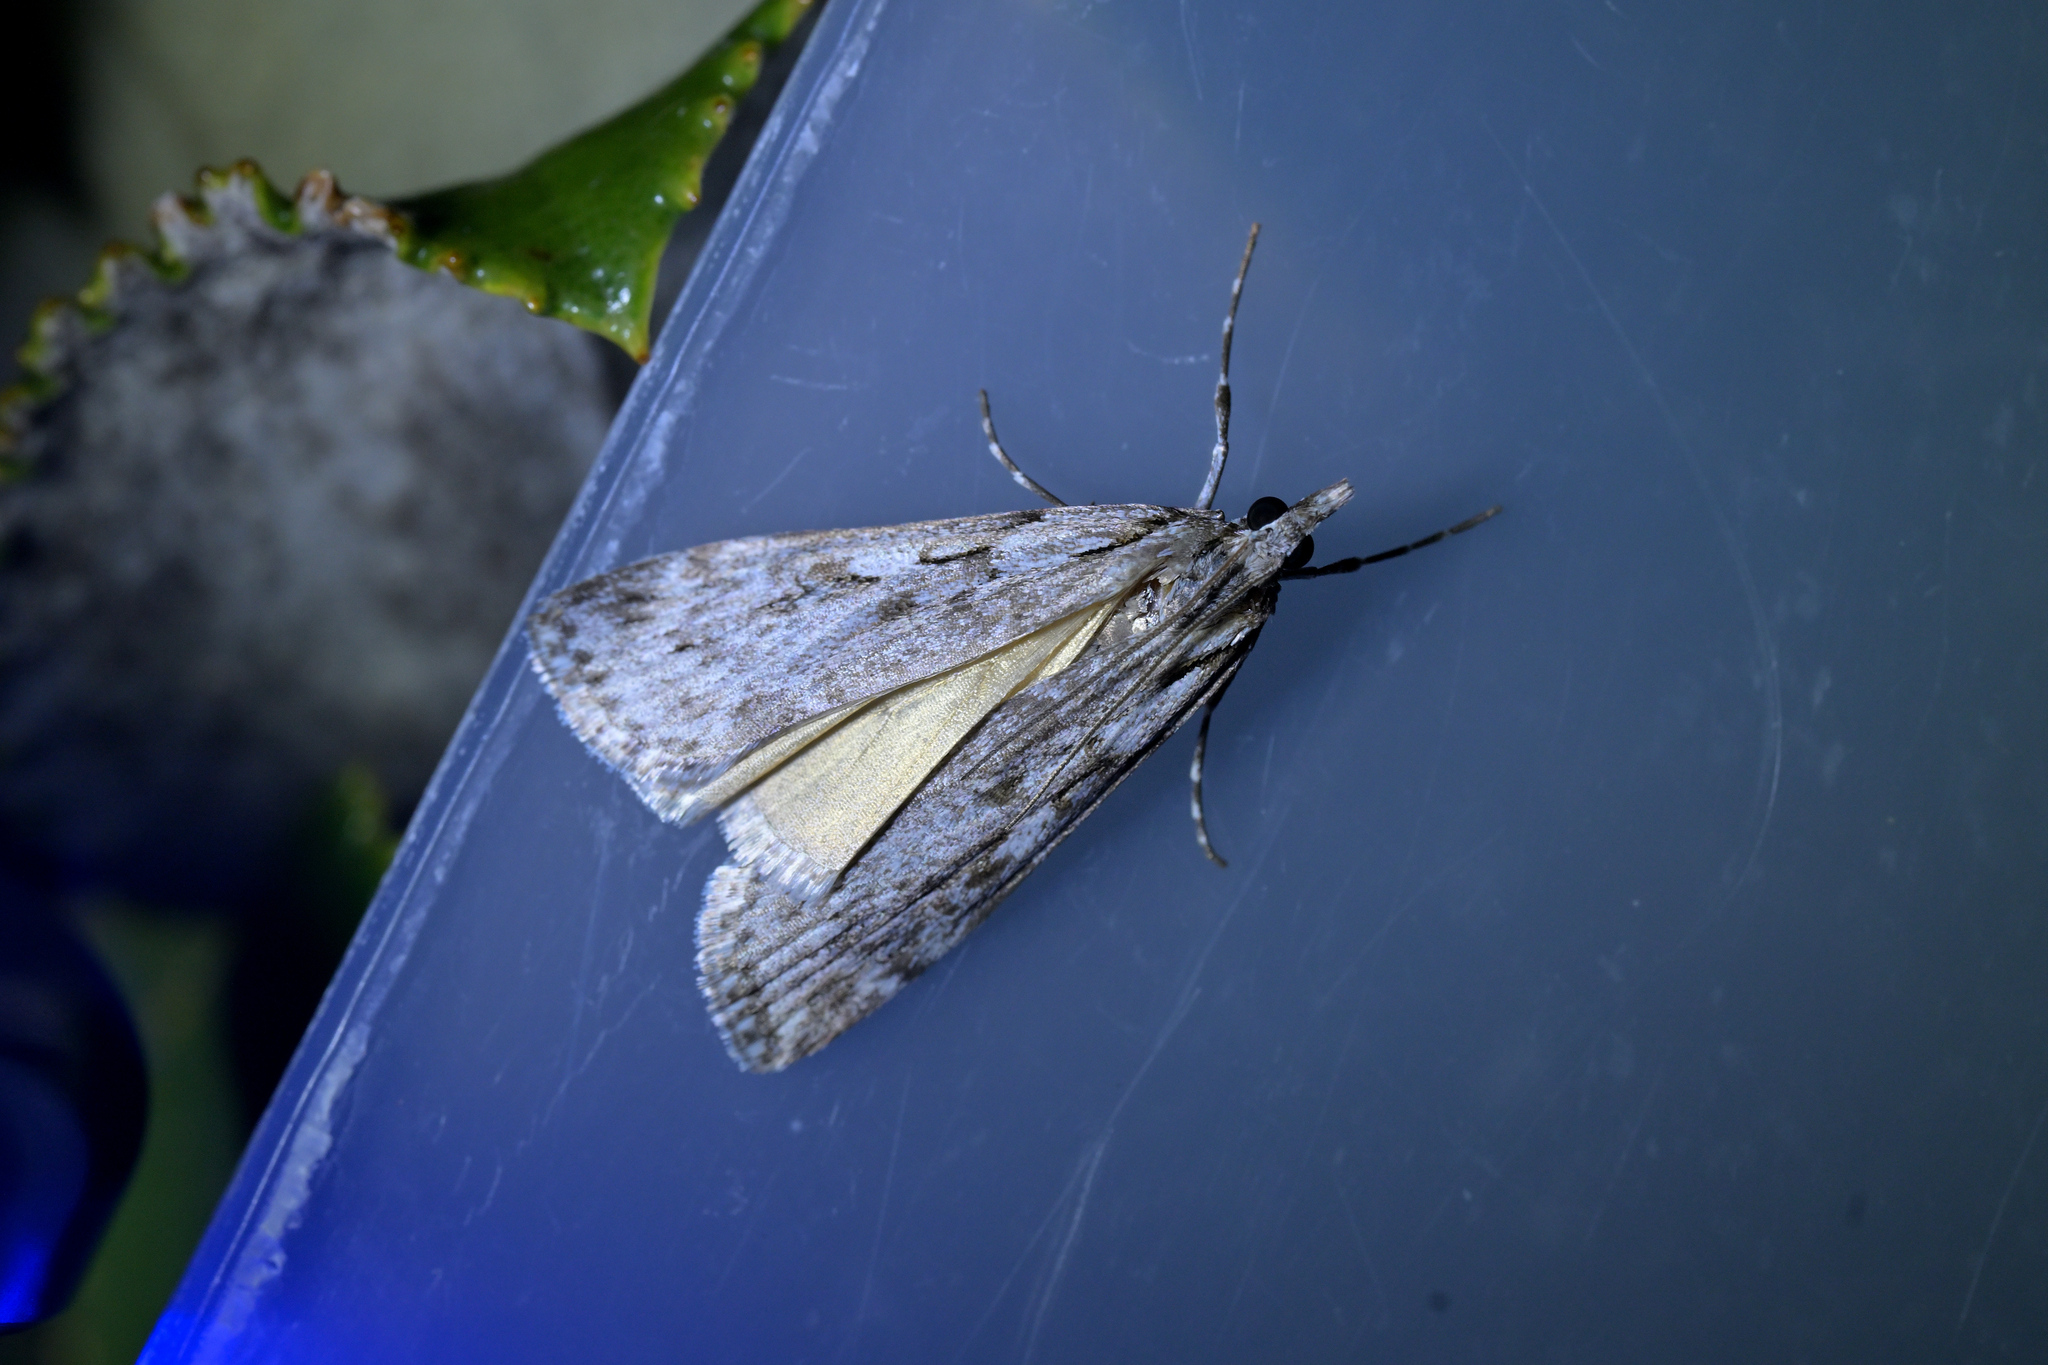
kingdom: Animalia
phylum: Arthropoda
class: Insecta
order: Lepidoptera
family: Crambidae
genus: Scoparia
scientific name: Scoparia halopis
